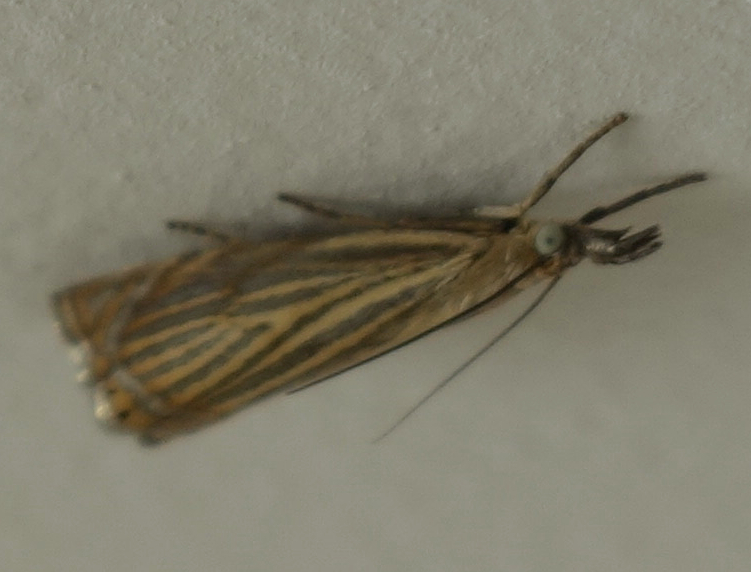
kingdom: Animalia
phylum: Arthropoda
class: Insecta
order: Lepidoptera
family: Crambidae
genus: Chrysoteuchia
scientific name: Chrysoteuchia culmella
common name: Garden grass-veneer
